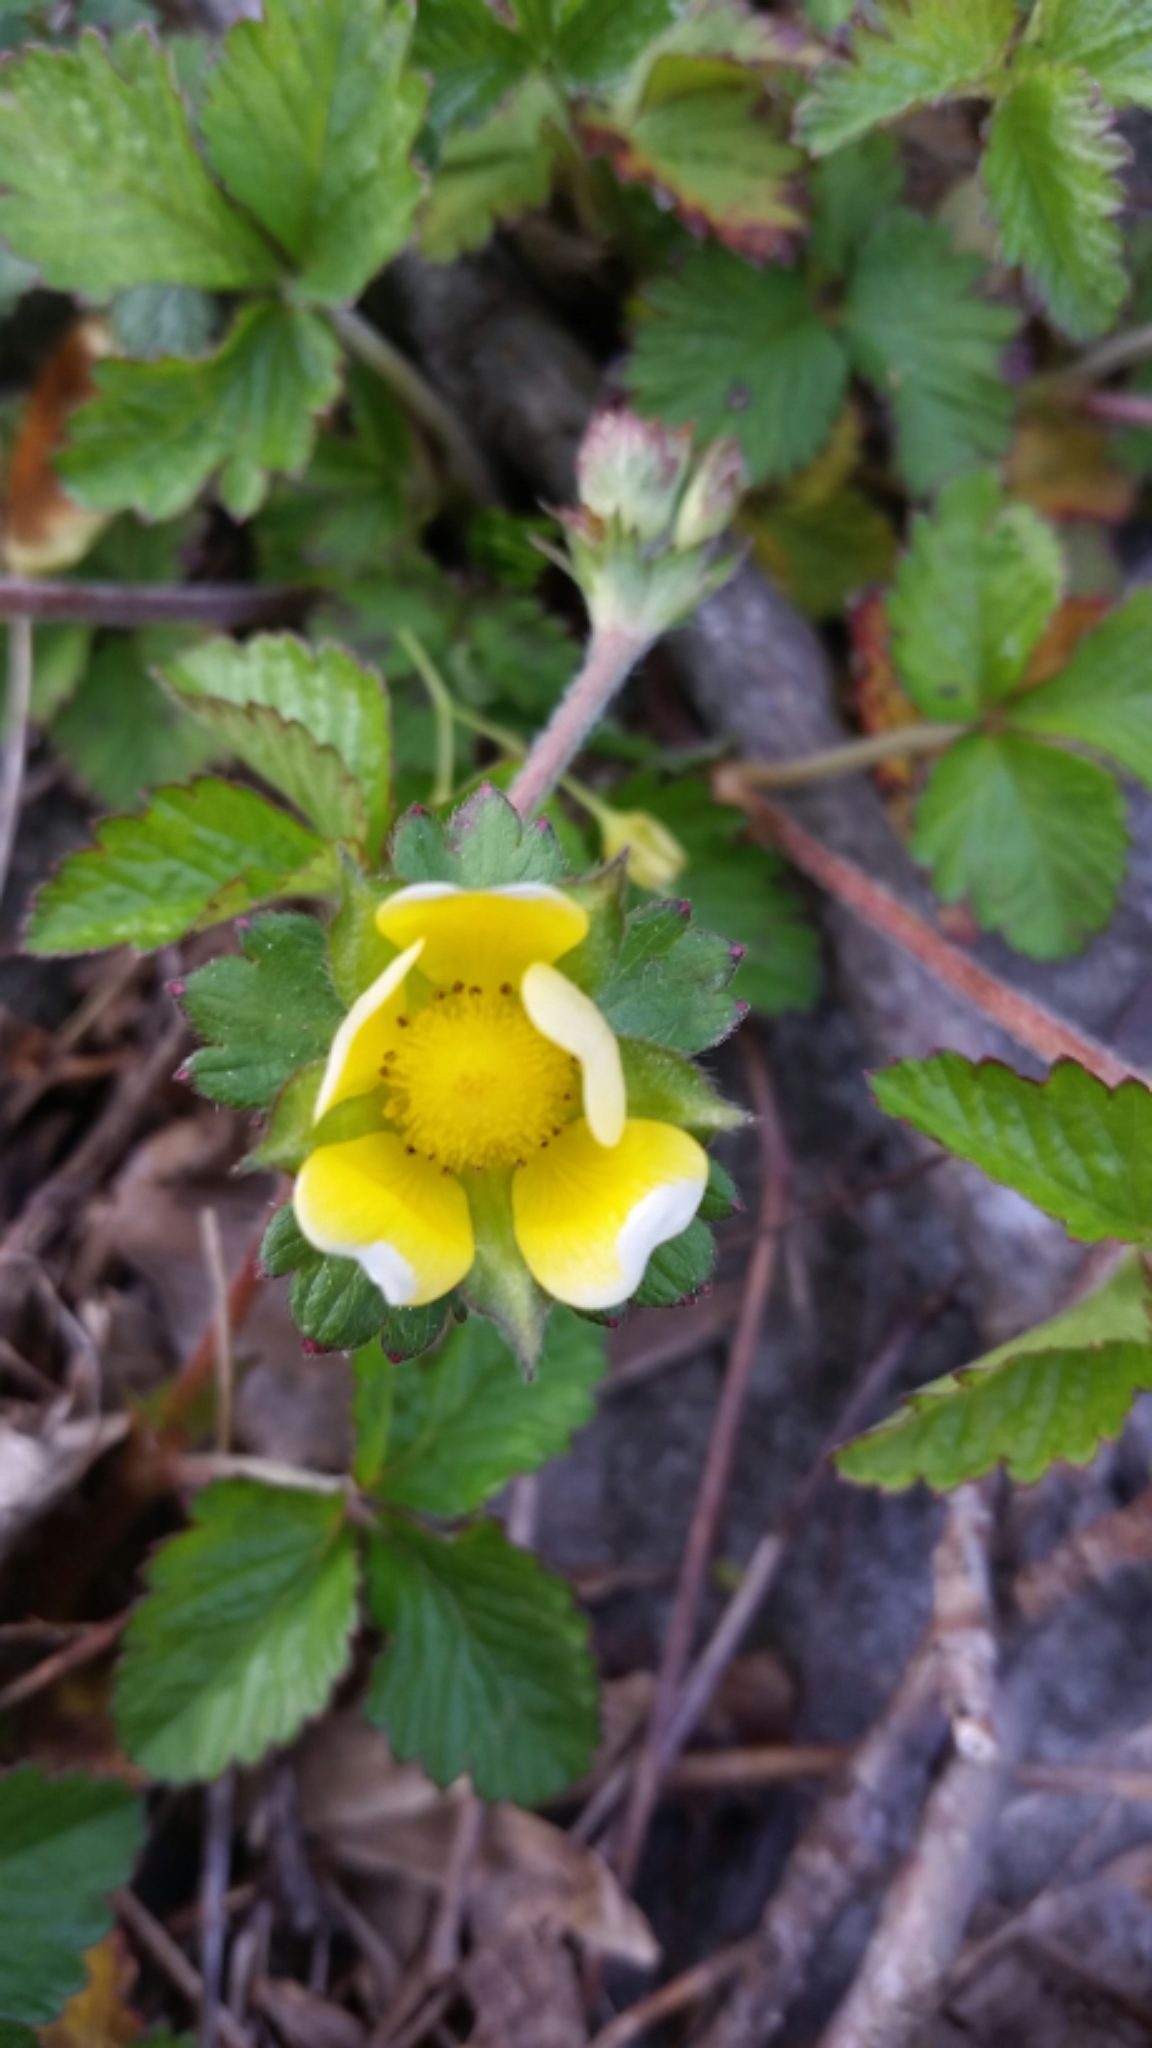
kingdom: Plantae
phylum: Tracheophyta
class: Magnoliopsida
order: Rosales
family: Rosaceae
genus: Potentilla
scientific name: Potentilla indica
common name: Yellow-flowered strawberry
